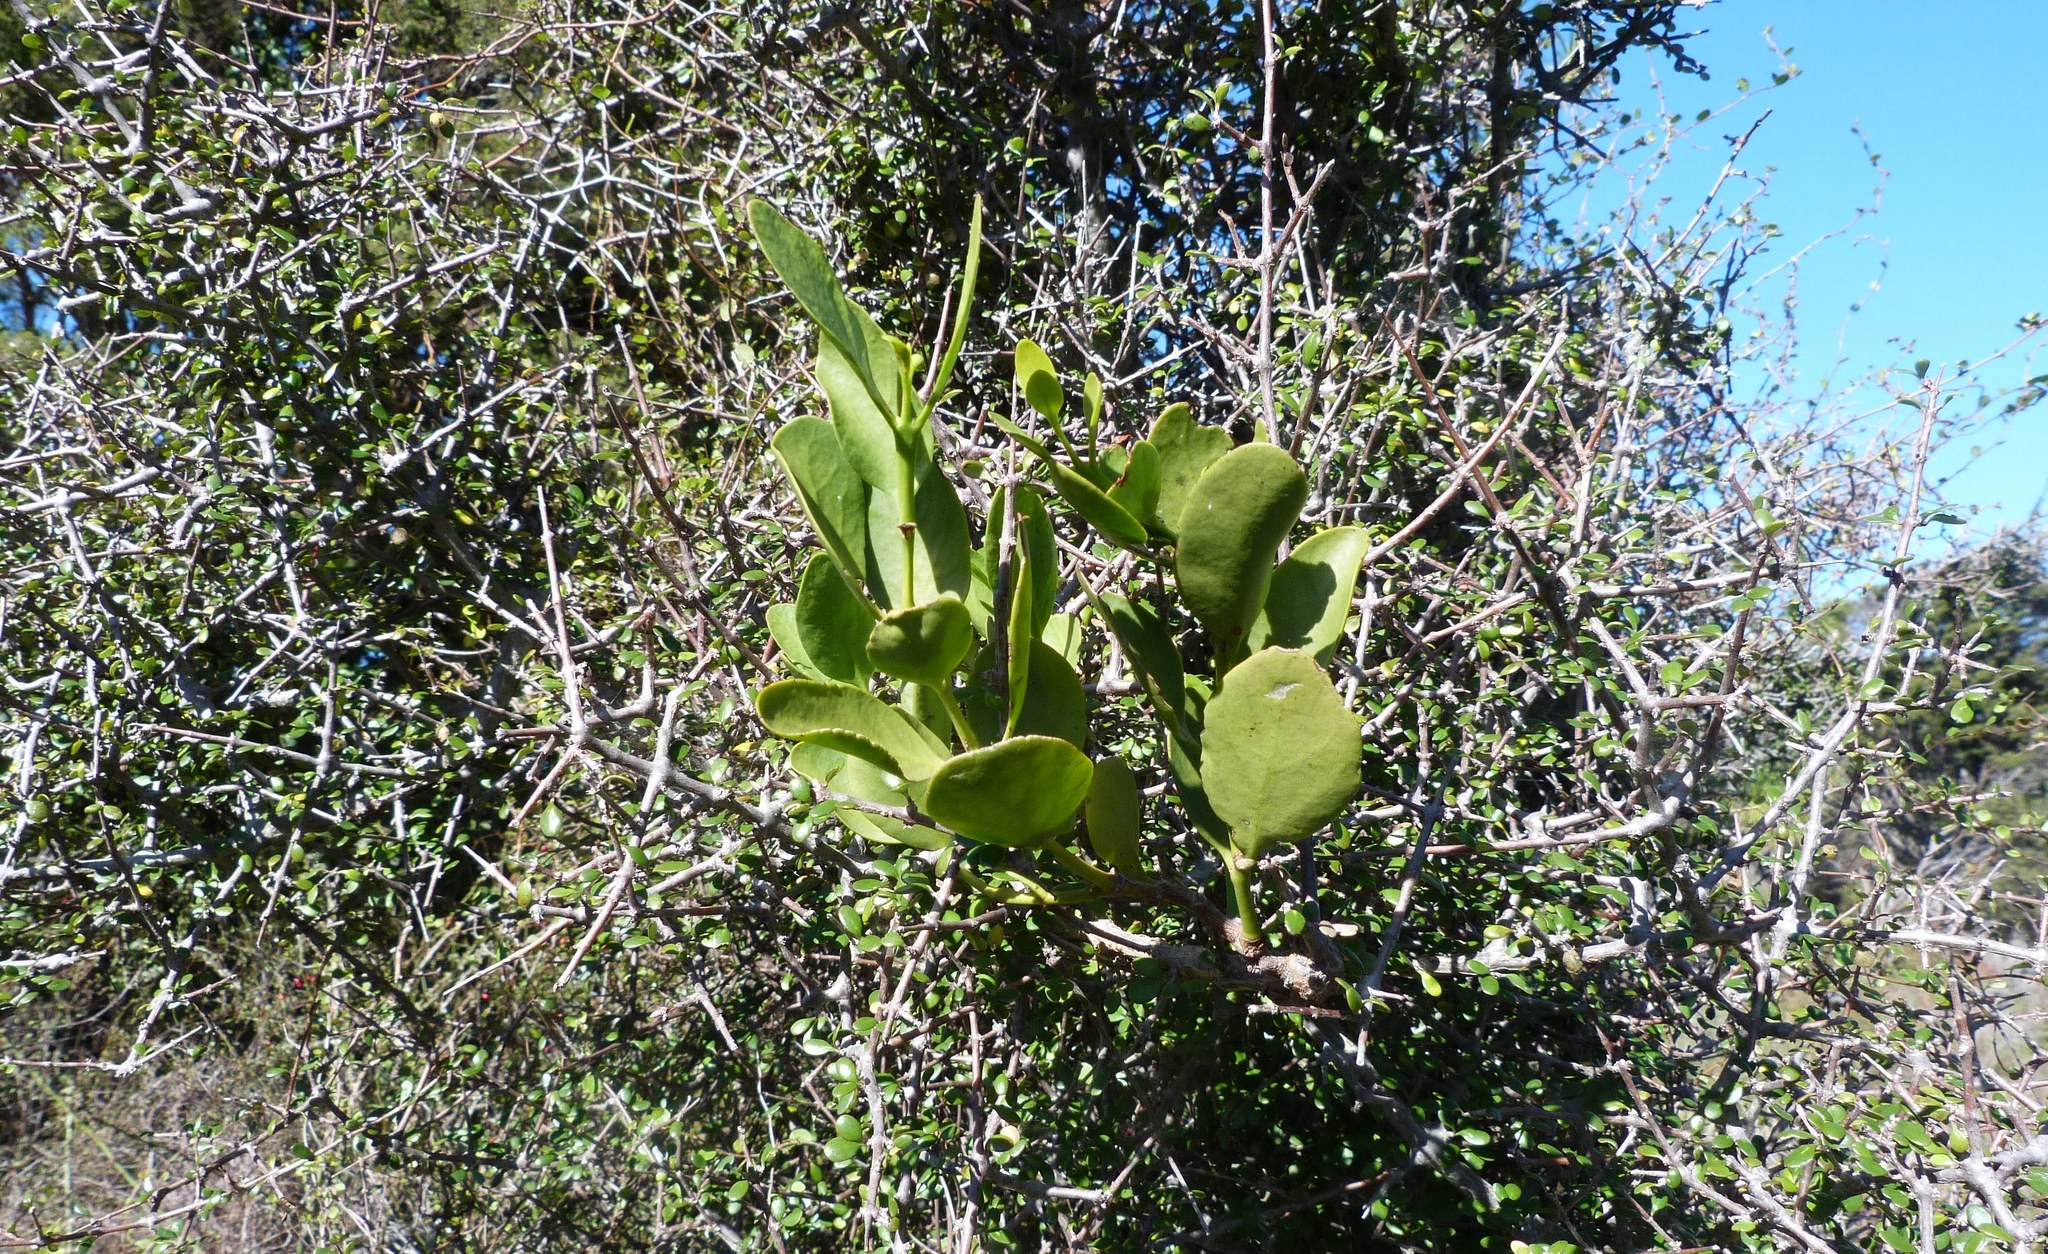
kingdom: Plantae
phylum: Tracheophyta
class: Magnoliopsida
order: Santalales
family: Loranthaceae
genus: Ileostylus
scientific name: Ileostylus micranthus
